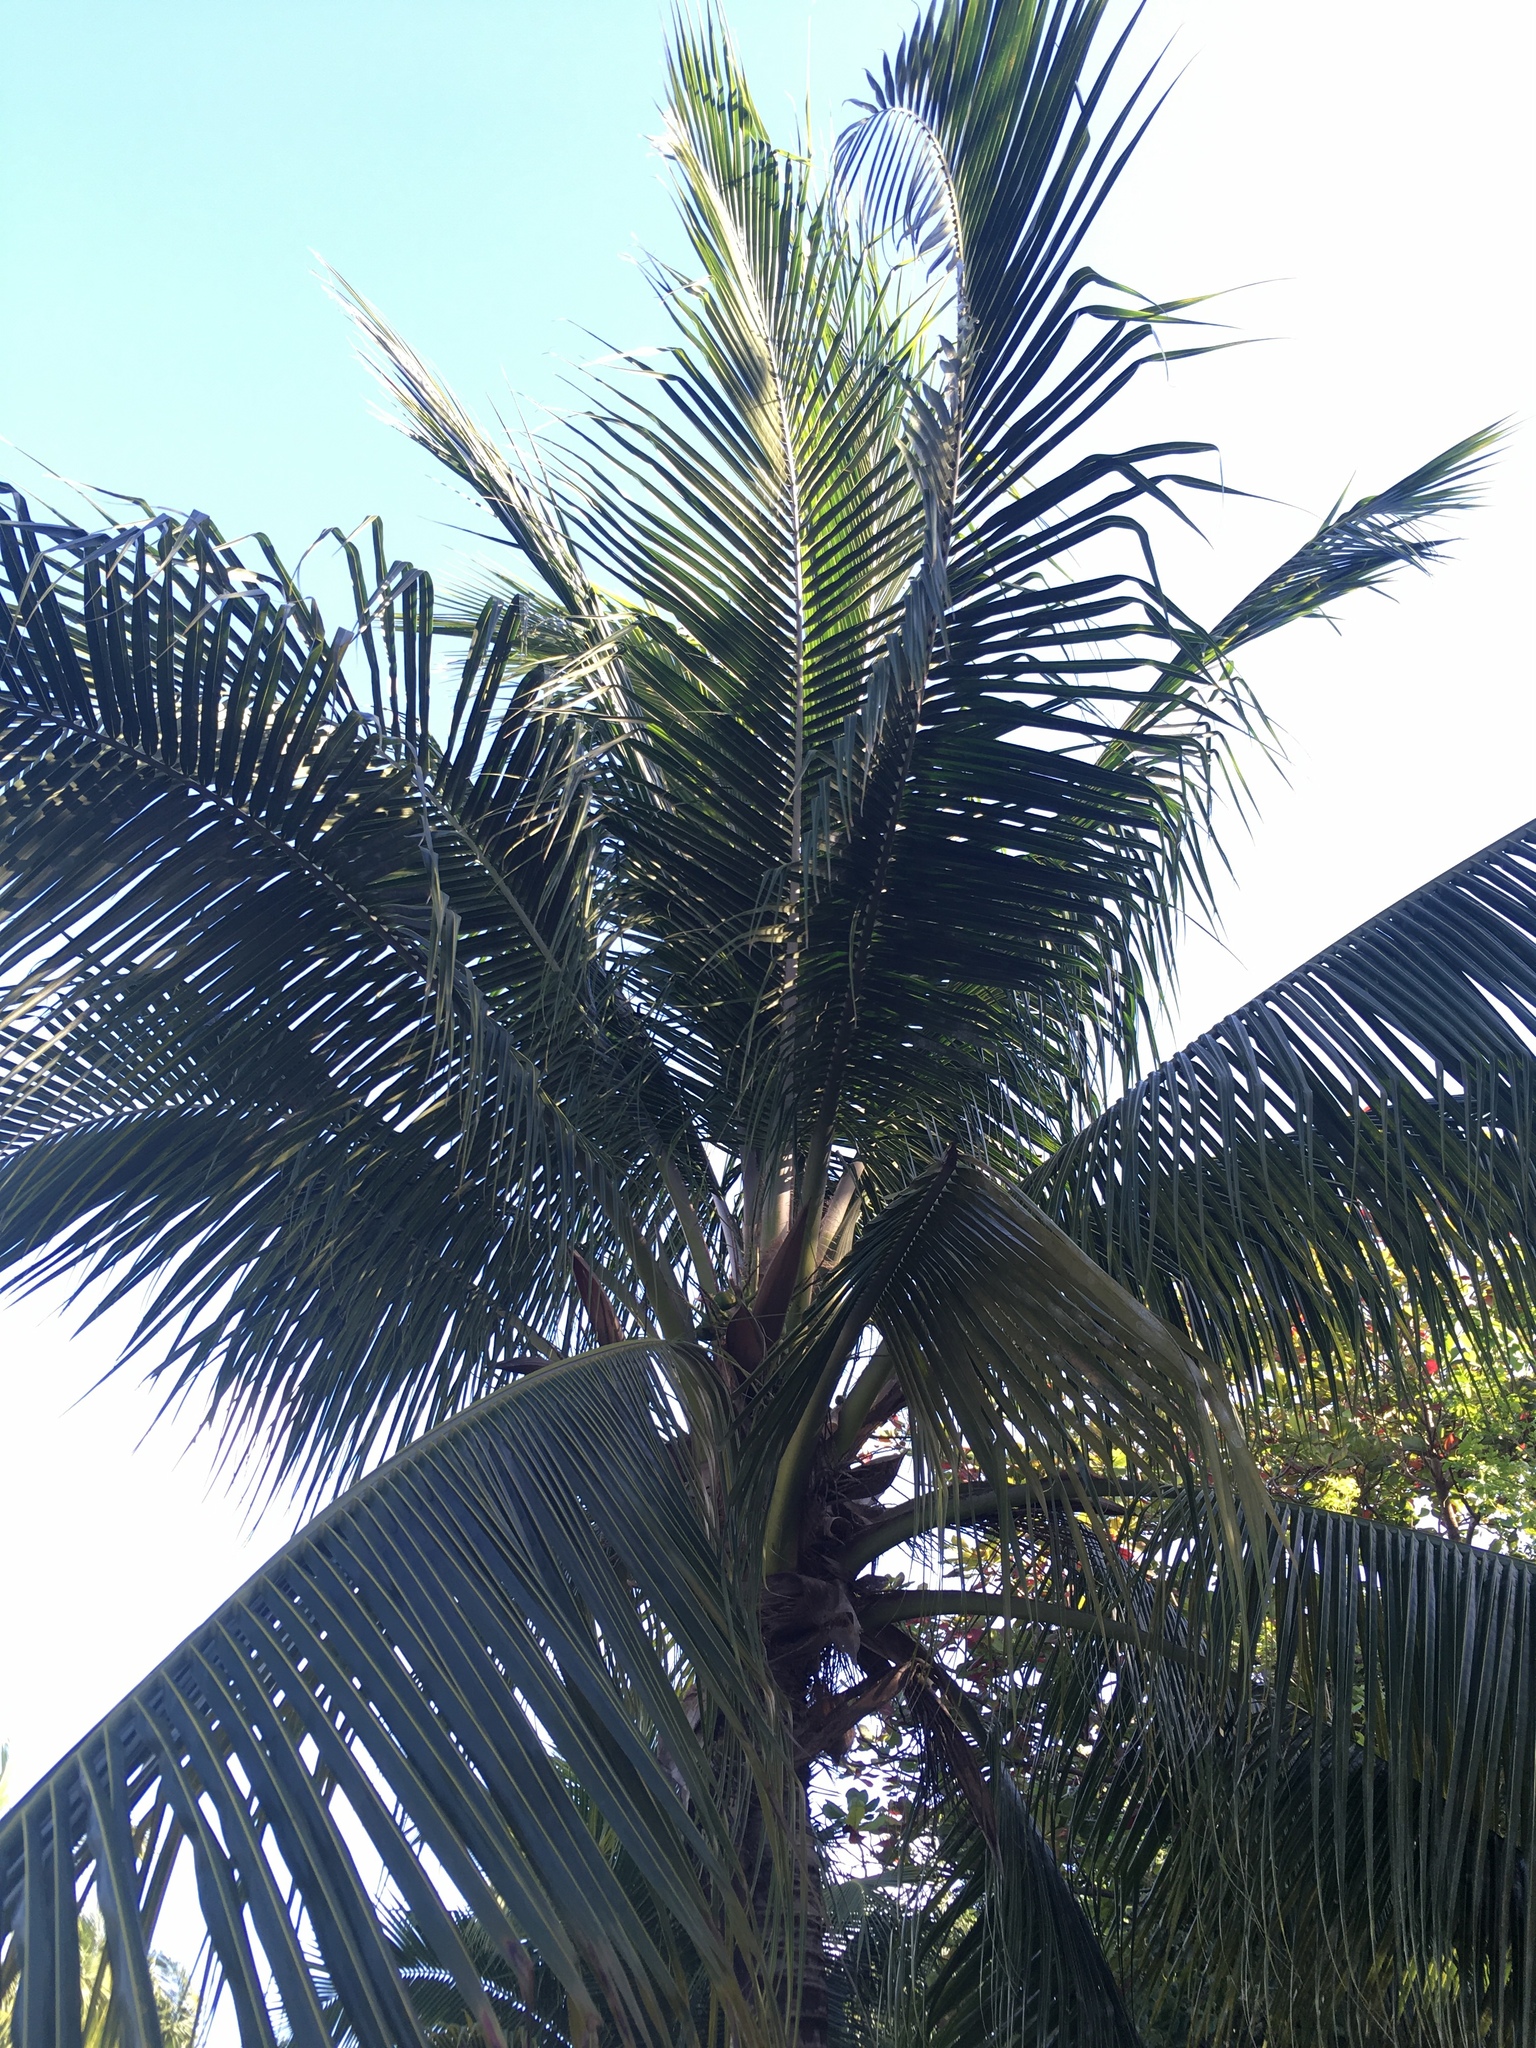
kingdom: Plantae
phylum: Tracheophyta
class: Liliopsida
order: Arecales
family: Arecaceae
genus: Cocos
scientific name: Cocos nucifera
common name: Coconut palm
